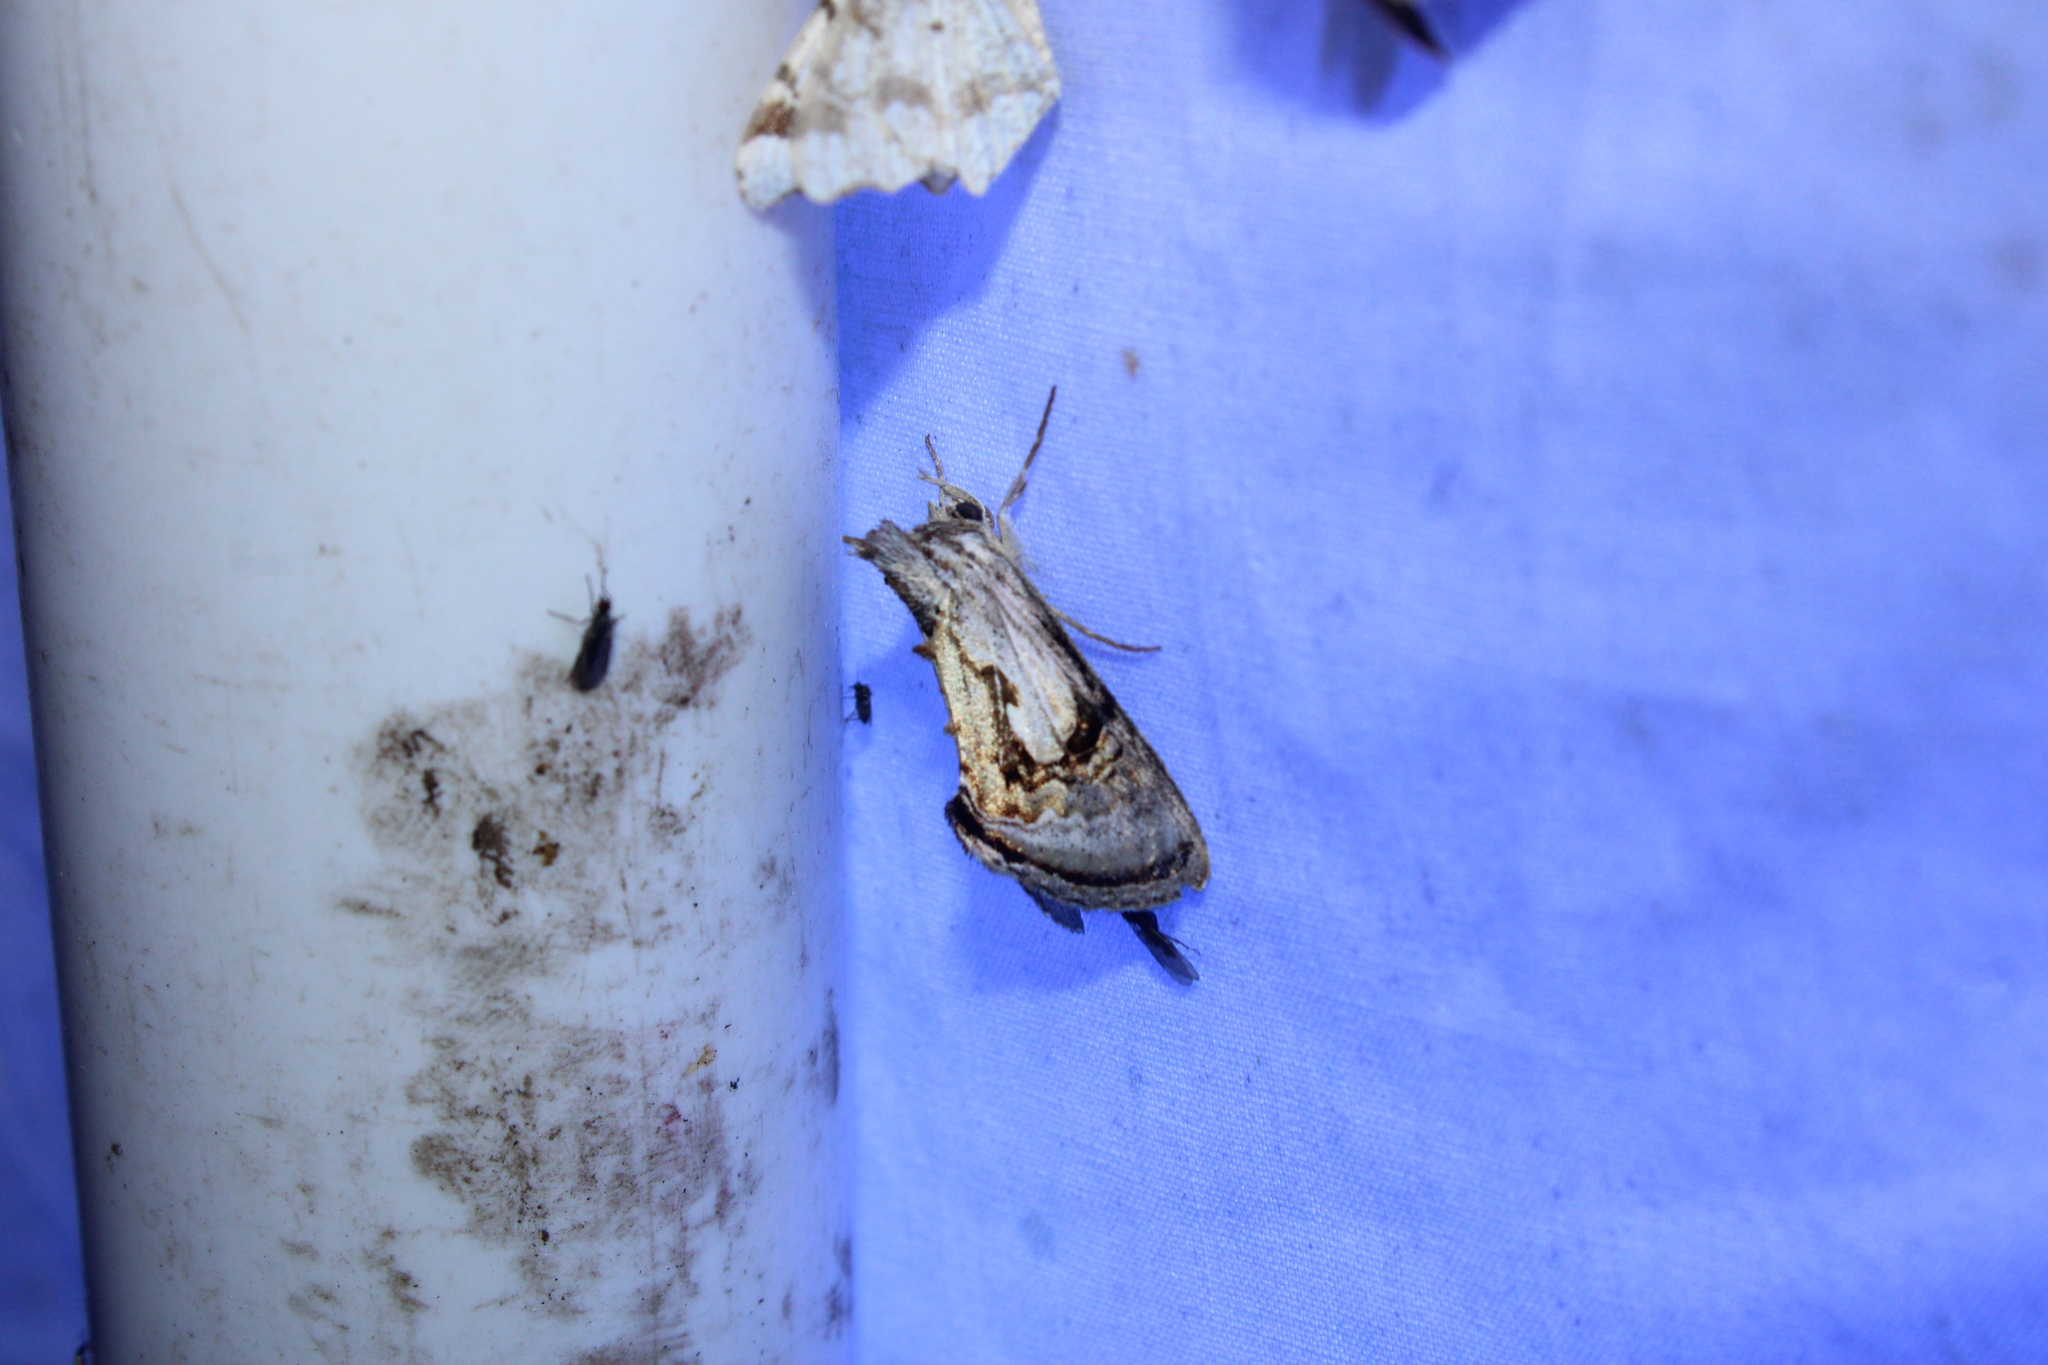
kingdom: Animalia
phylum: Arthropoda
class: Insecta
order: Lepidoptera
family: Noctuidae
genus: Chrysanympha
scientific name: Chrysanympha formosa
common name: Formosa looper moth
